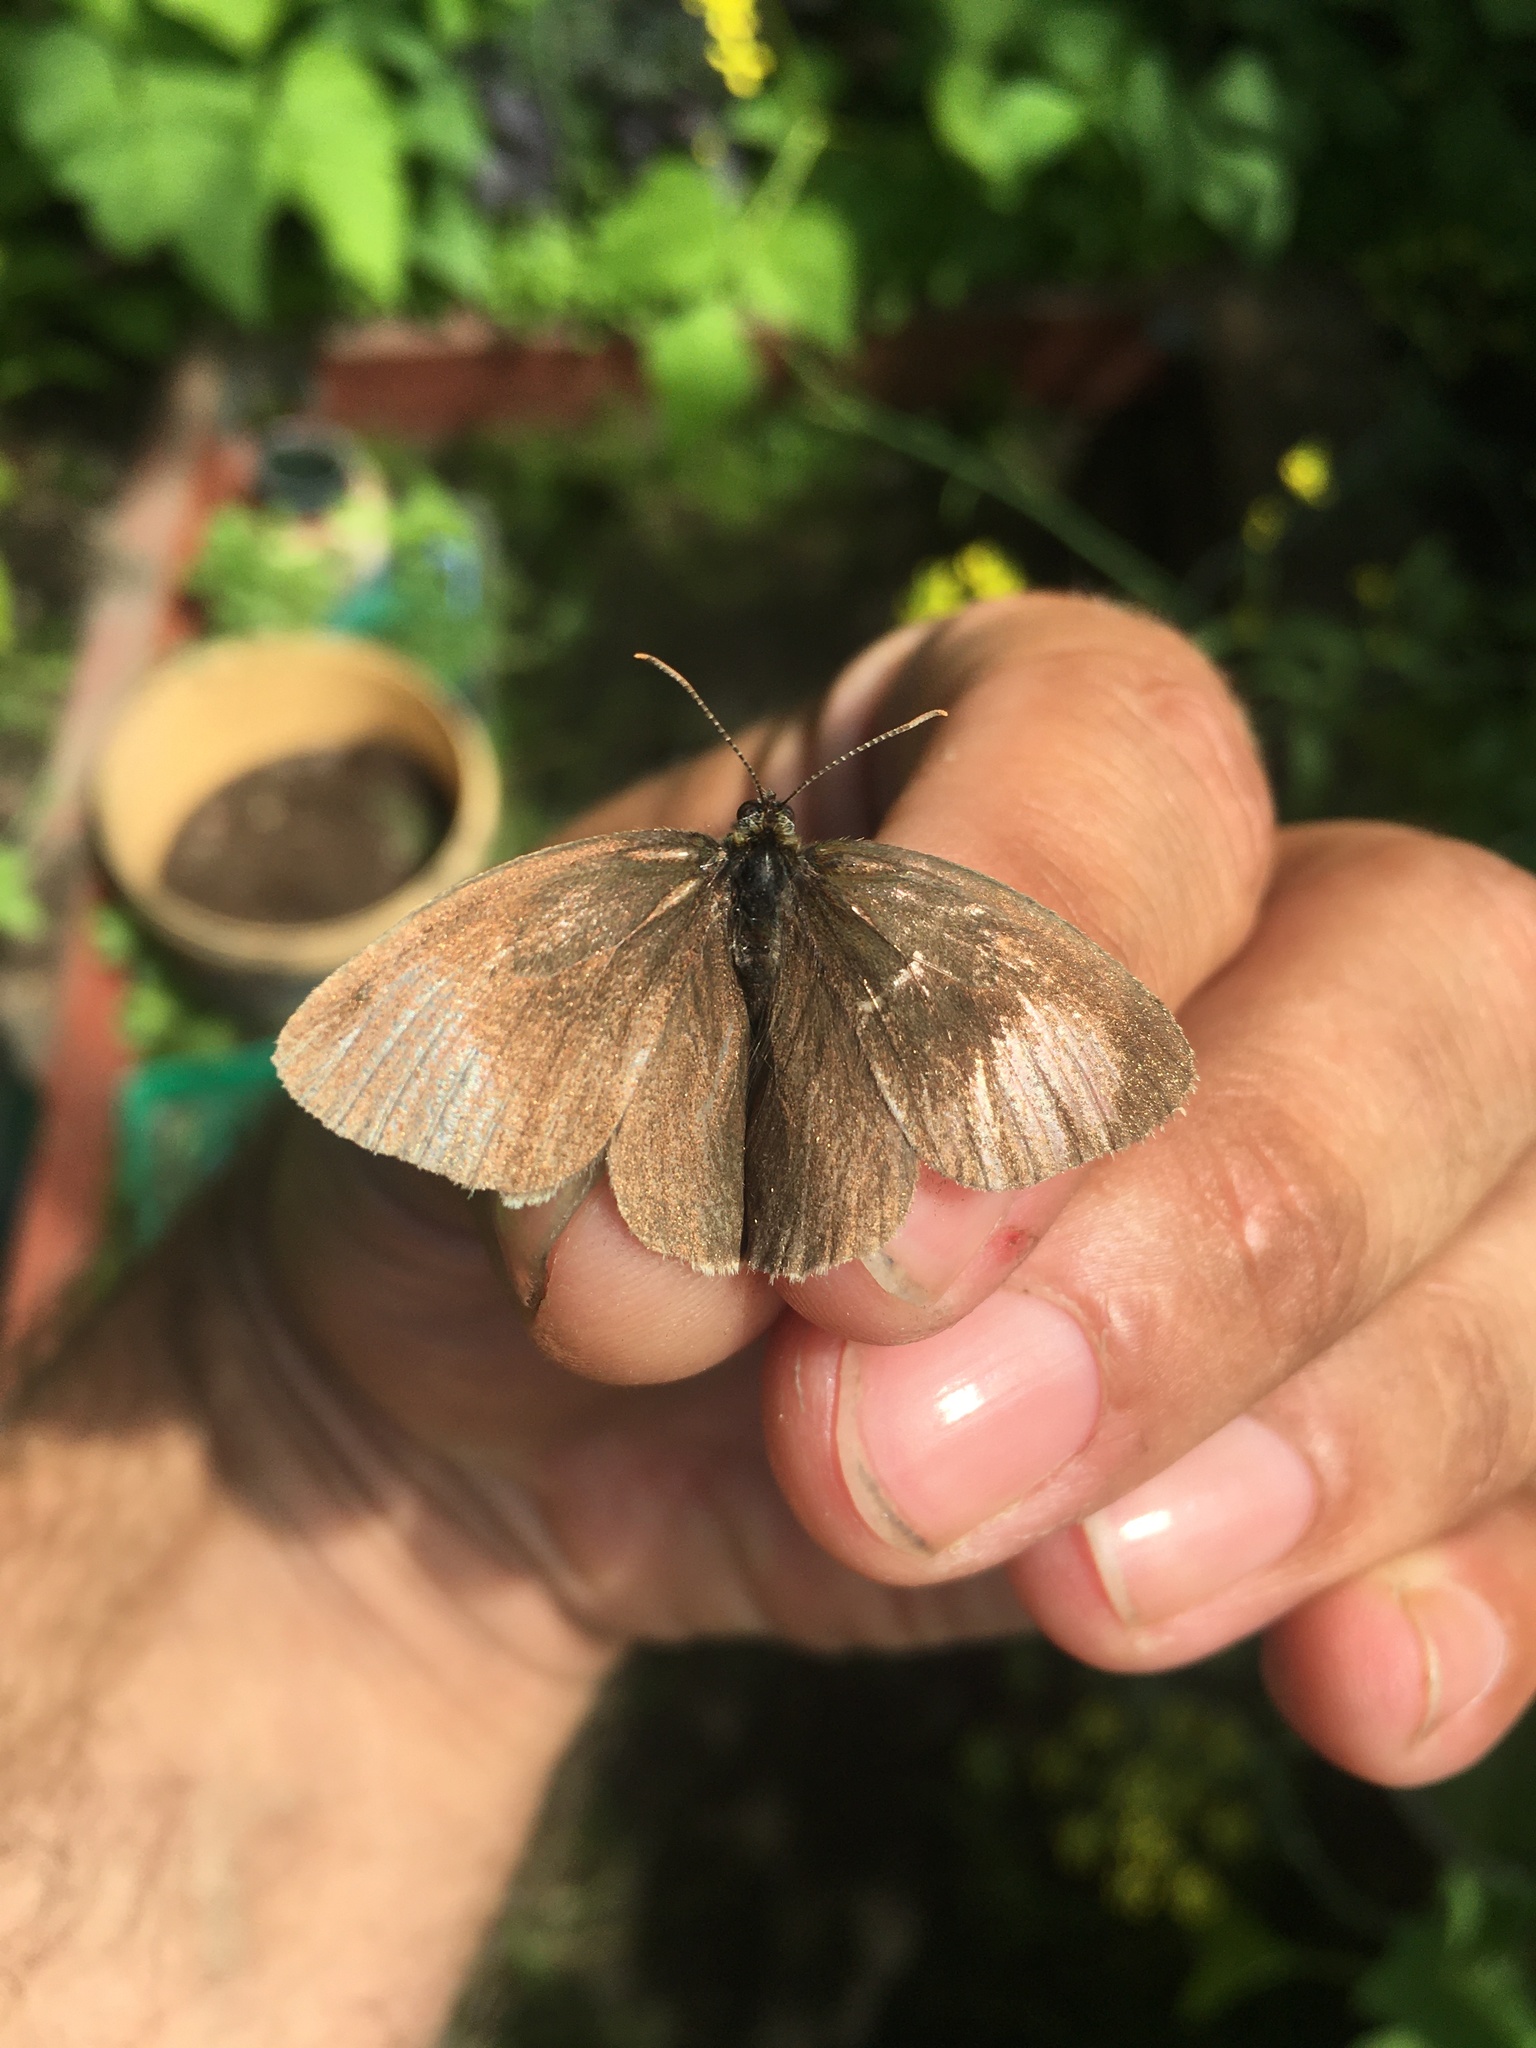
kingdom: Animalia
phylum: Arthropoda
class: Insecta
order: Lepidoptera
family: Nymphalidae
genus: Aphantopus
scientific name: Aphantopus hyperantus
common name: Ringlet
